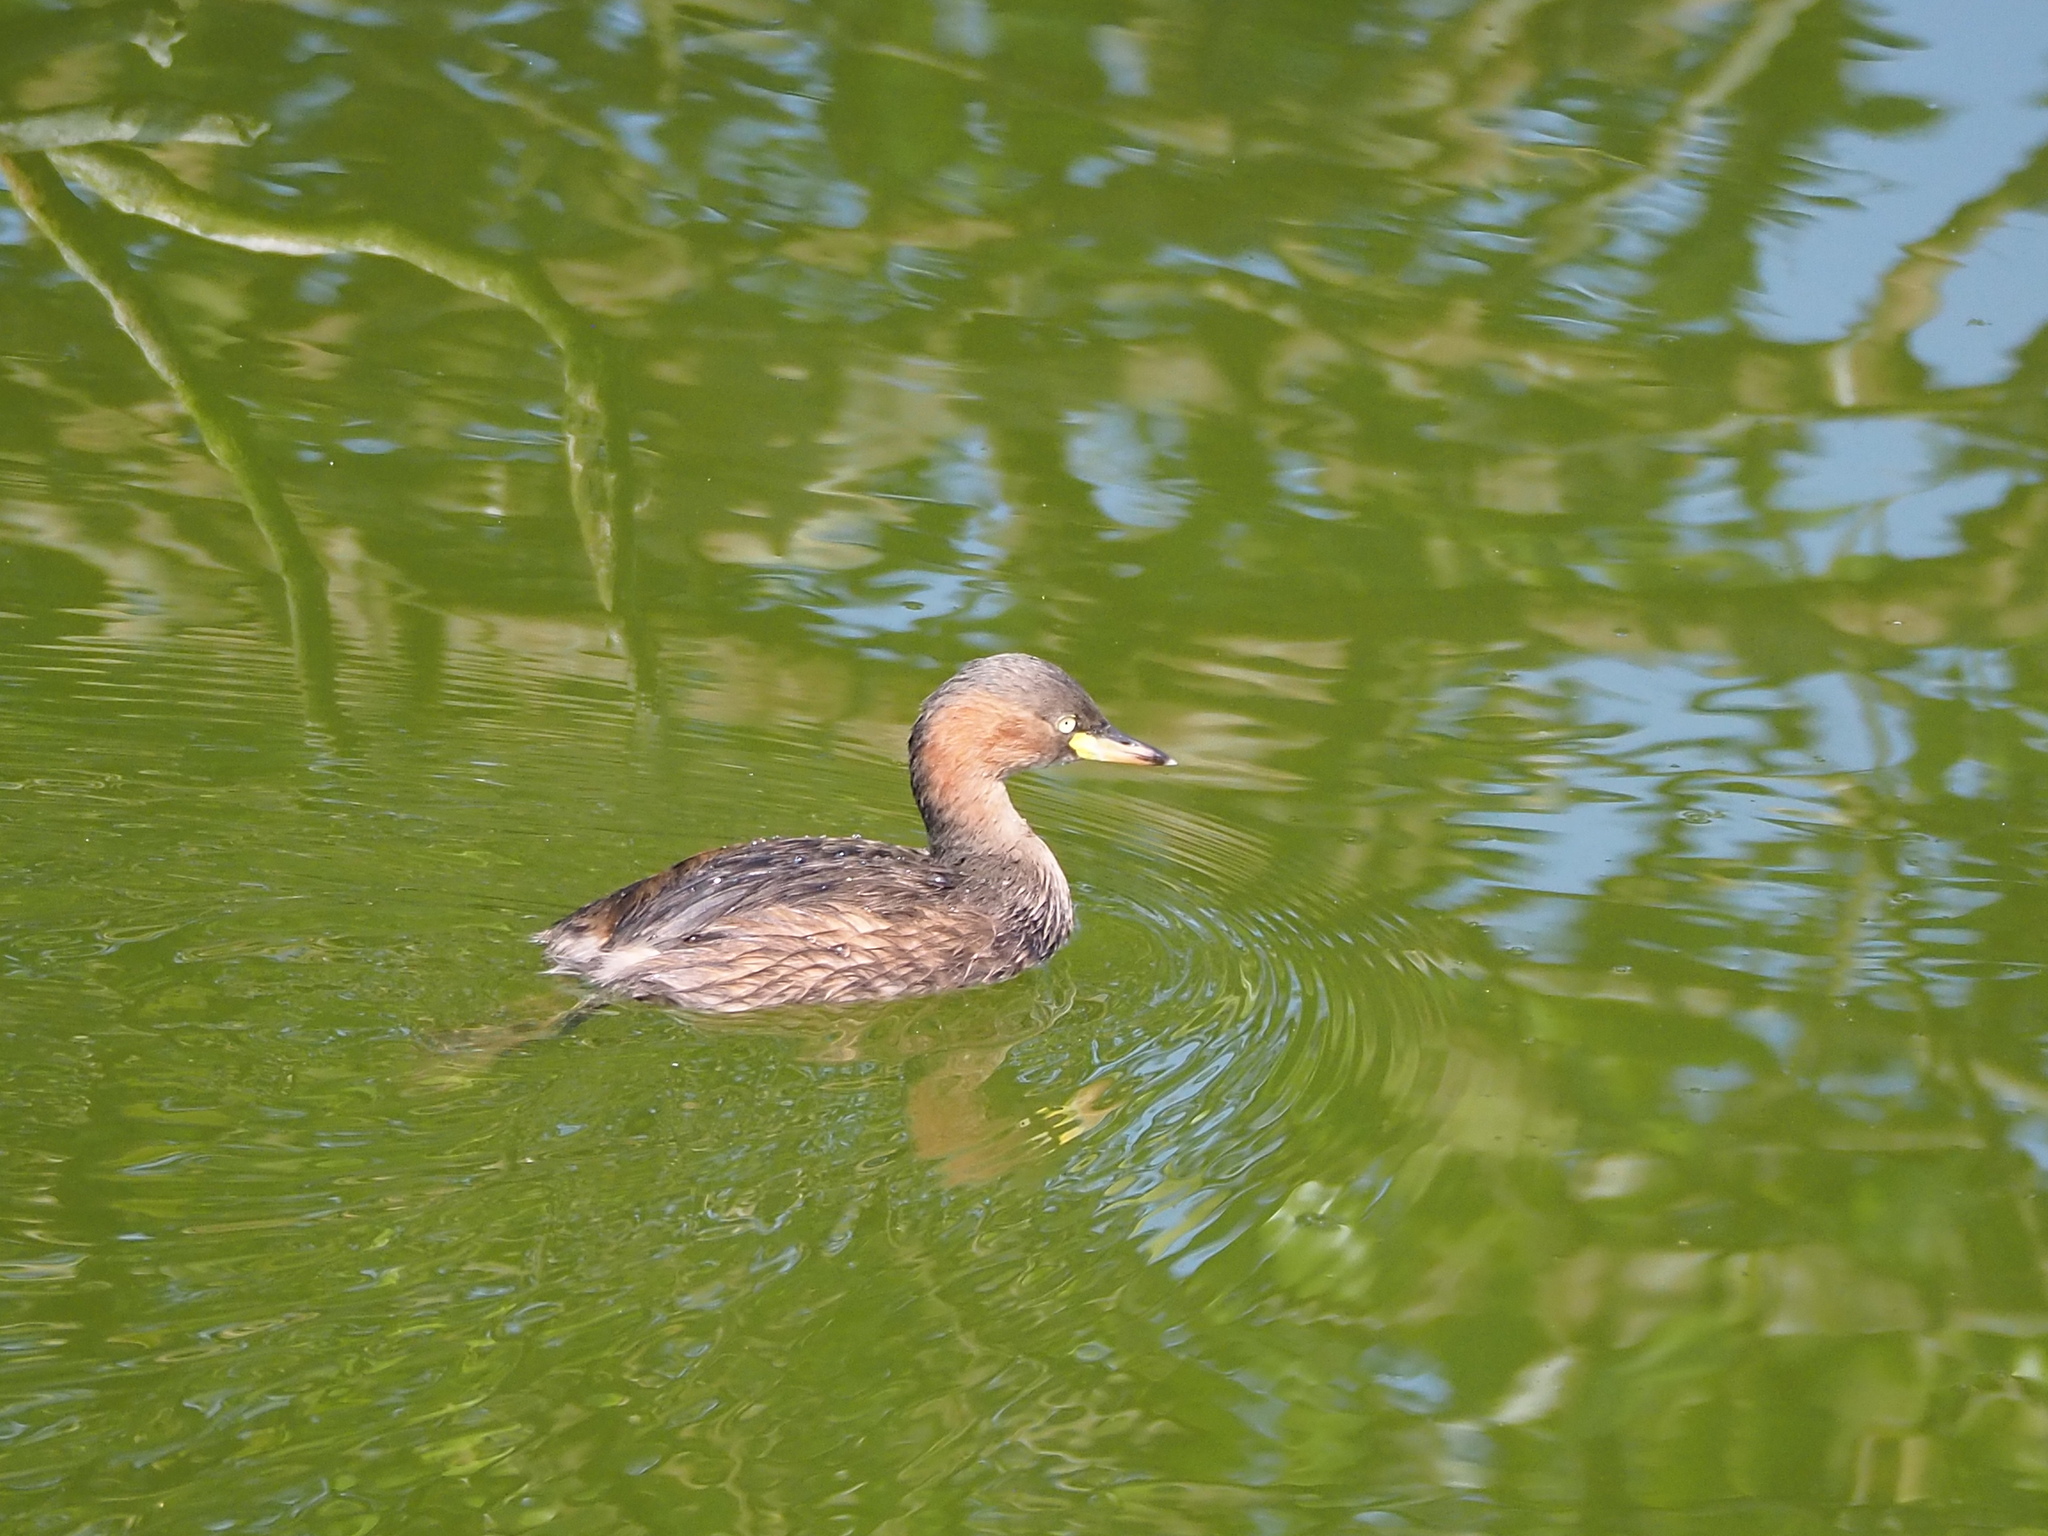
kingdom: Animalia
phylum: Chordata
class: Aves
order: Podicipediformes
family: Podicipedidae
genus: Tachybaptus
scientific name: Tachybaptus ruficollis
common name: Little grebe
